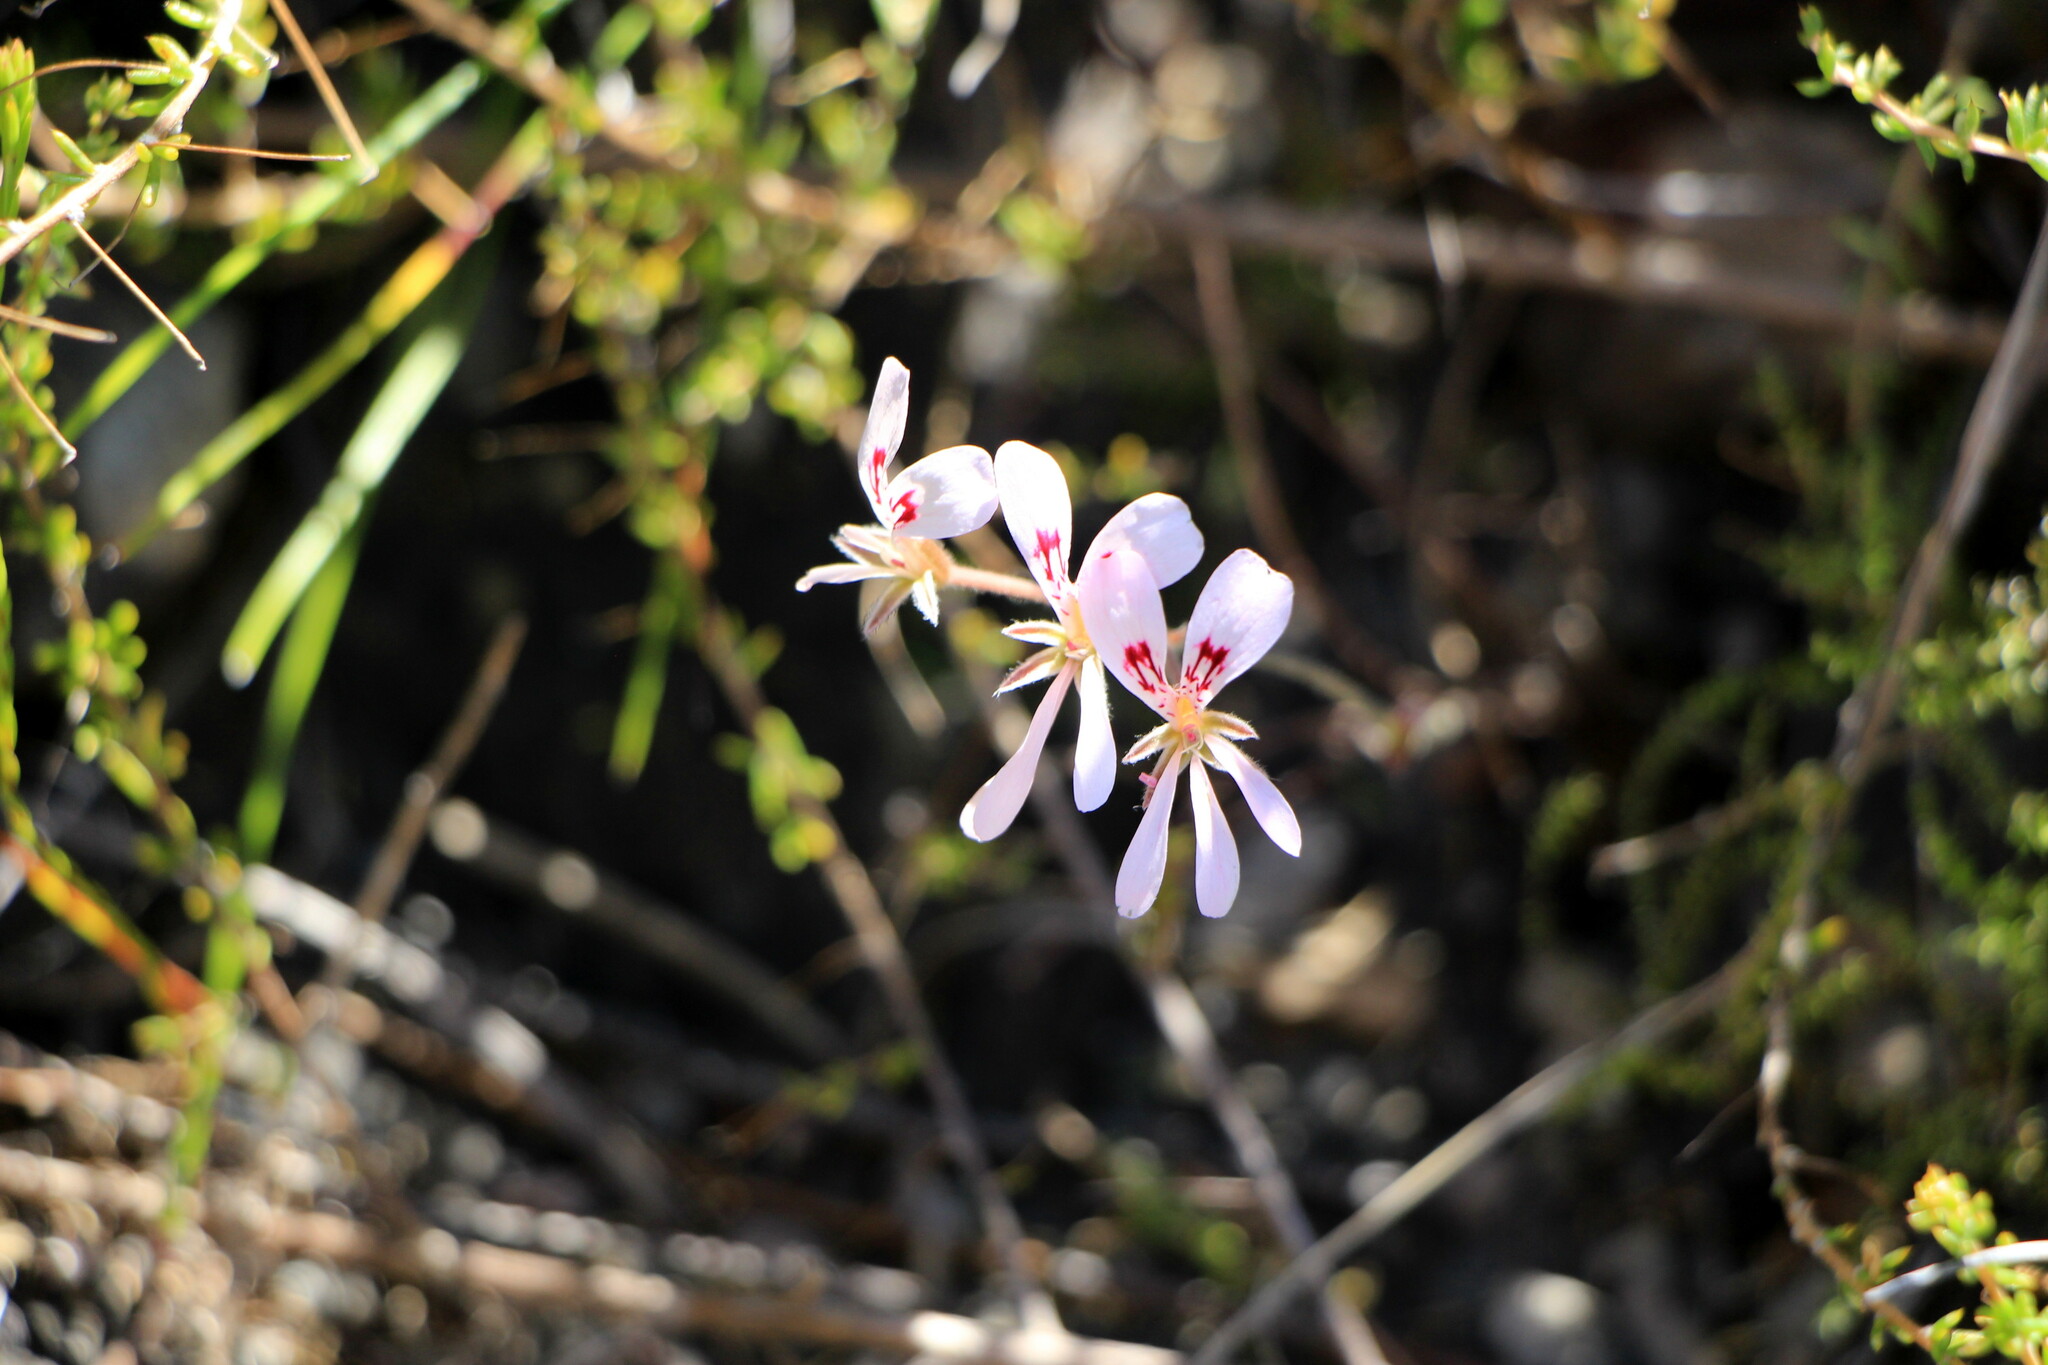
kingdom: Plantae
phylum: Tracheophyta
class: Magnoliopsida
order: Geraniales
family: Geraniaceae
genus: Pelargonium
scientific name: Pelargonium psammophilum
